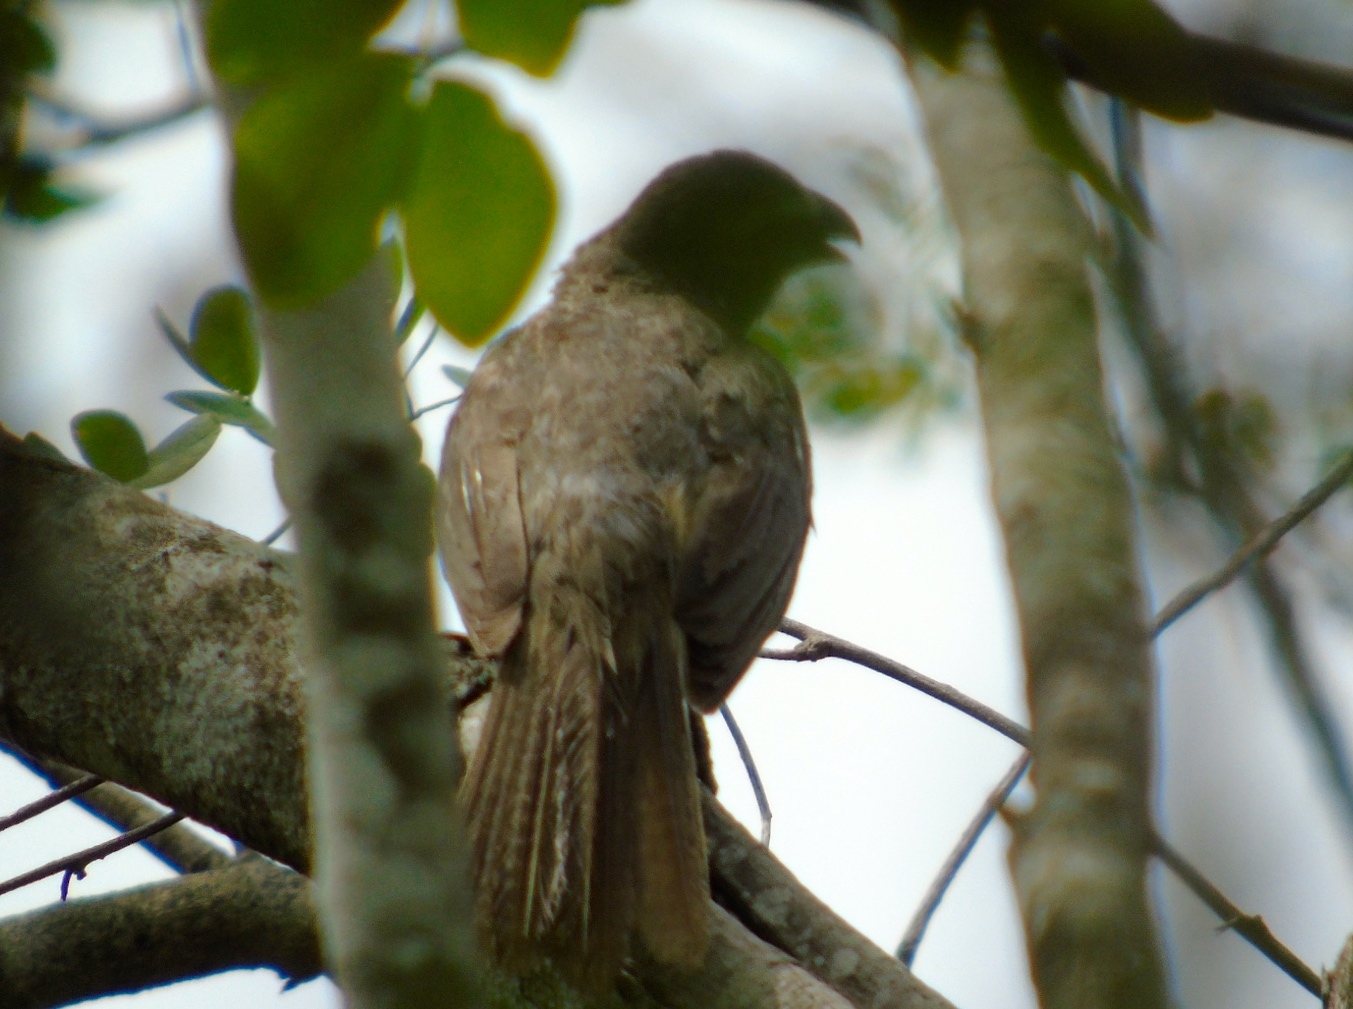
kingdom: Animalia
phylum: Chordata
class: Aves
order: Passeriformes
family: Thraupidae
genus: Saltator
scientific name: Saltator grandis
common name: Cinnamon-bellied saltator
